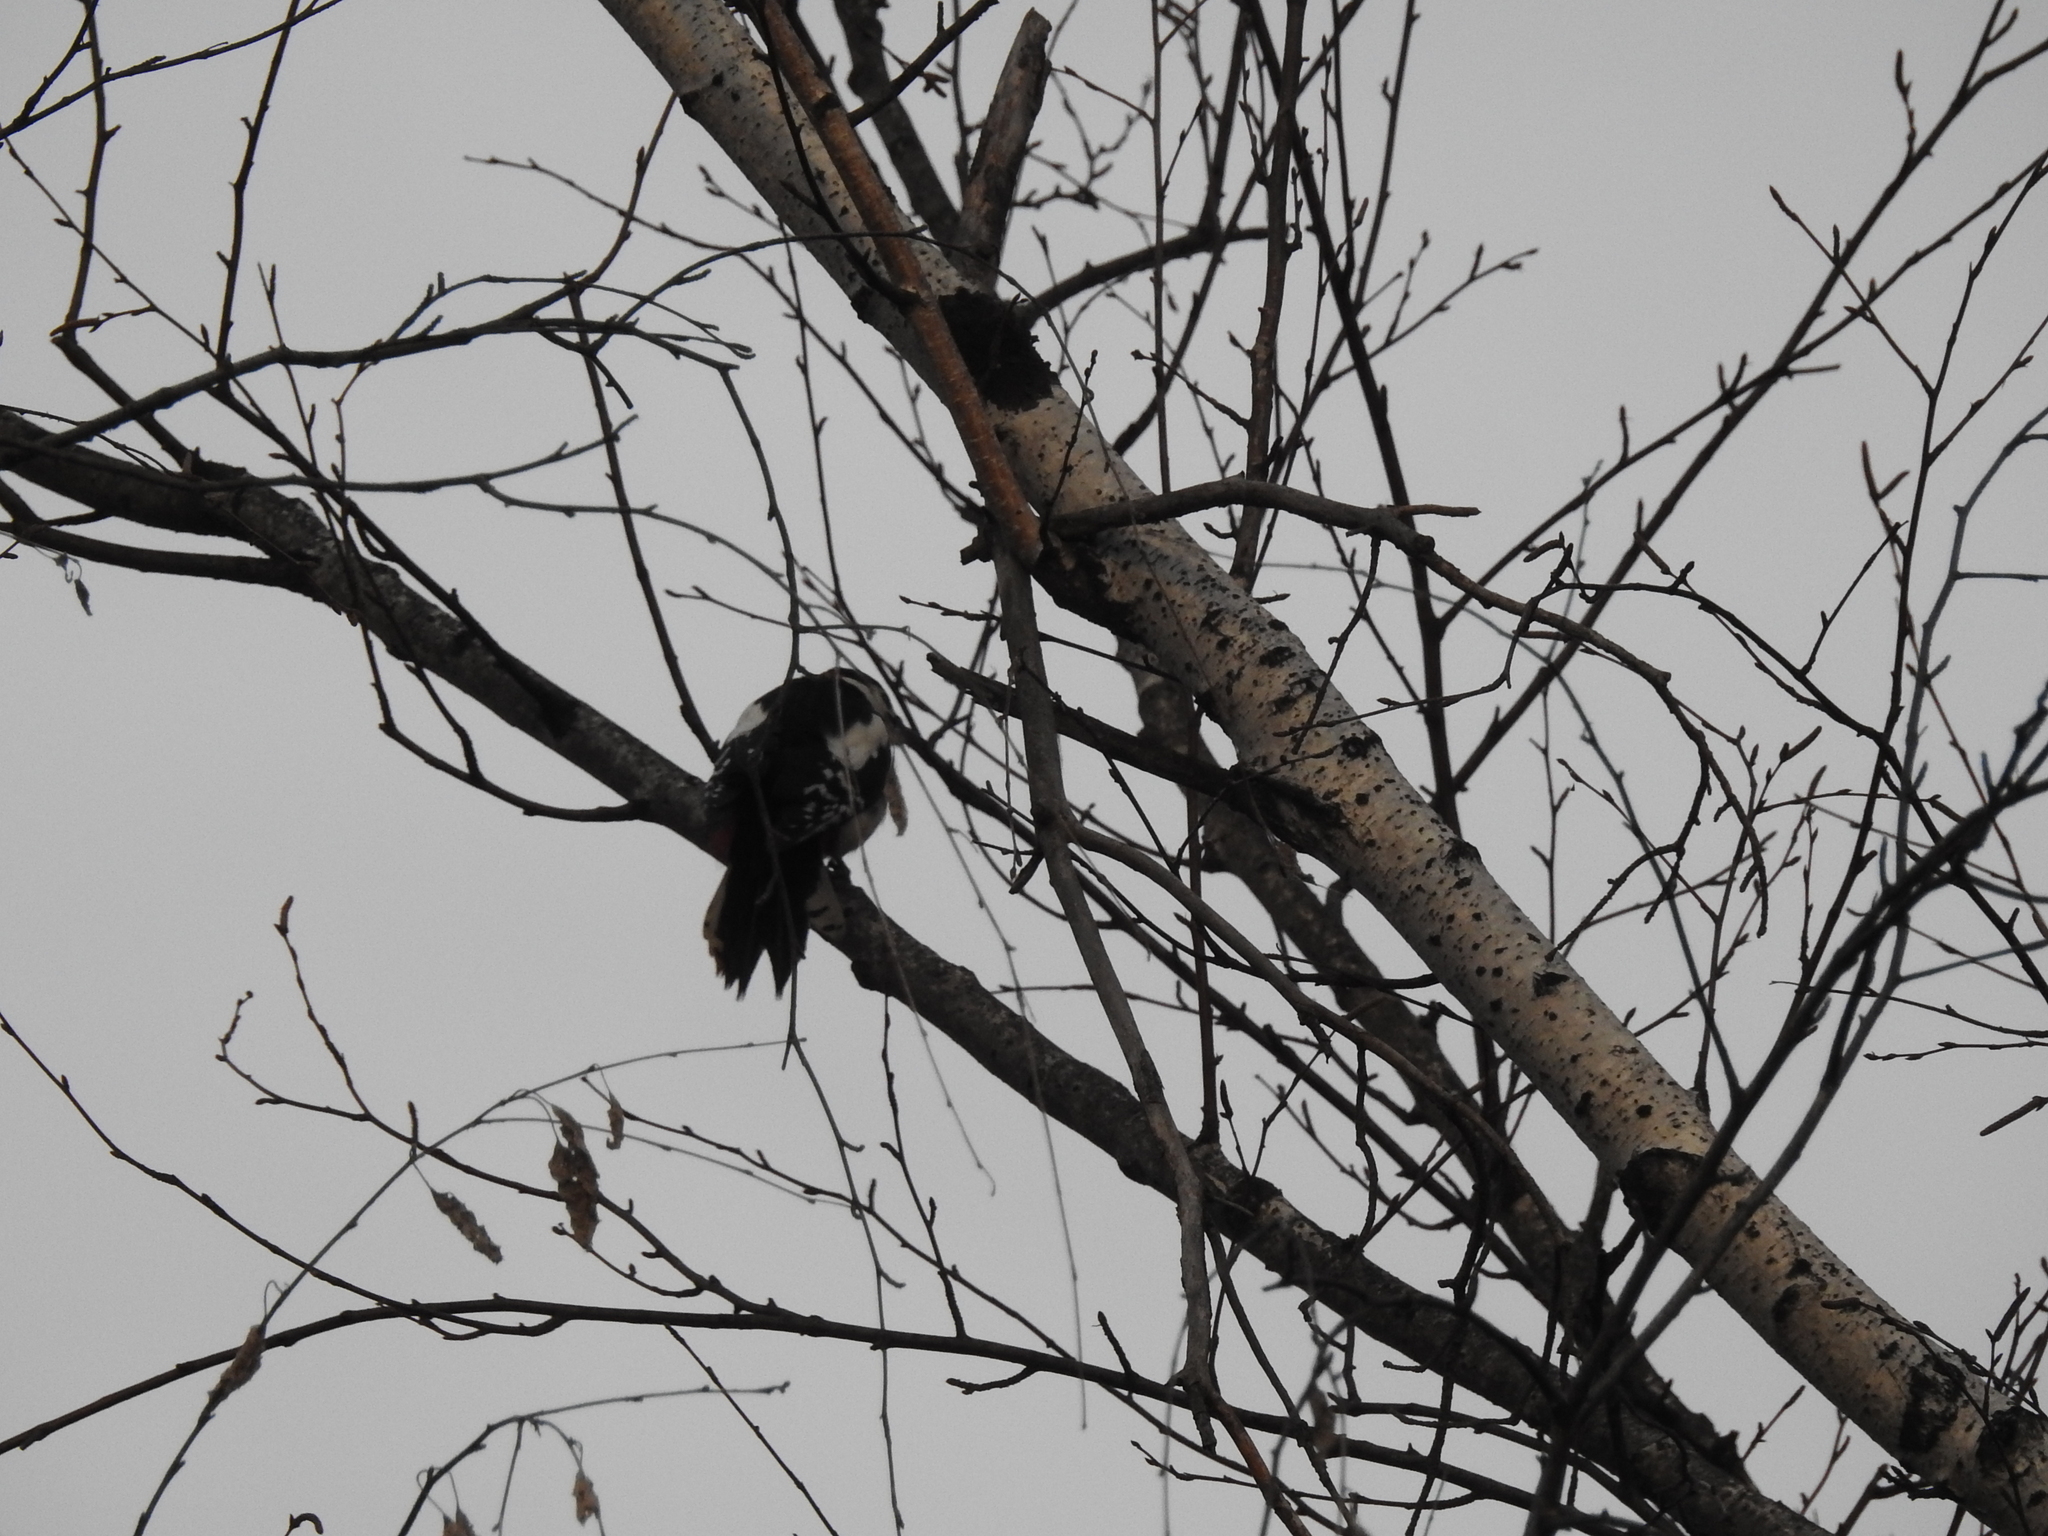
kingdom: Animalia
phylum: Chordata
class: Aves
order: Piciformes
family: Picidae
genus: Dendrocopos
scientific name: Dendrocopos major
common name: Great spotted woodpecker
